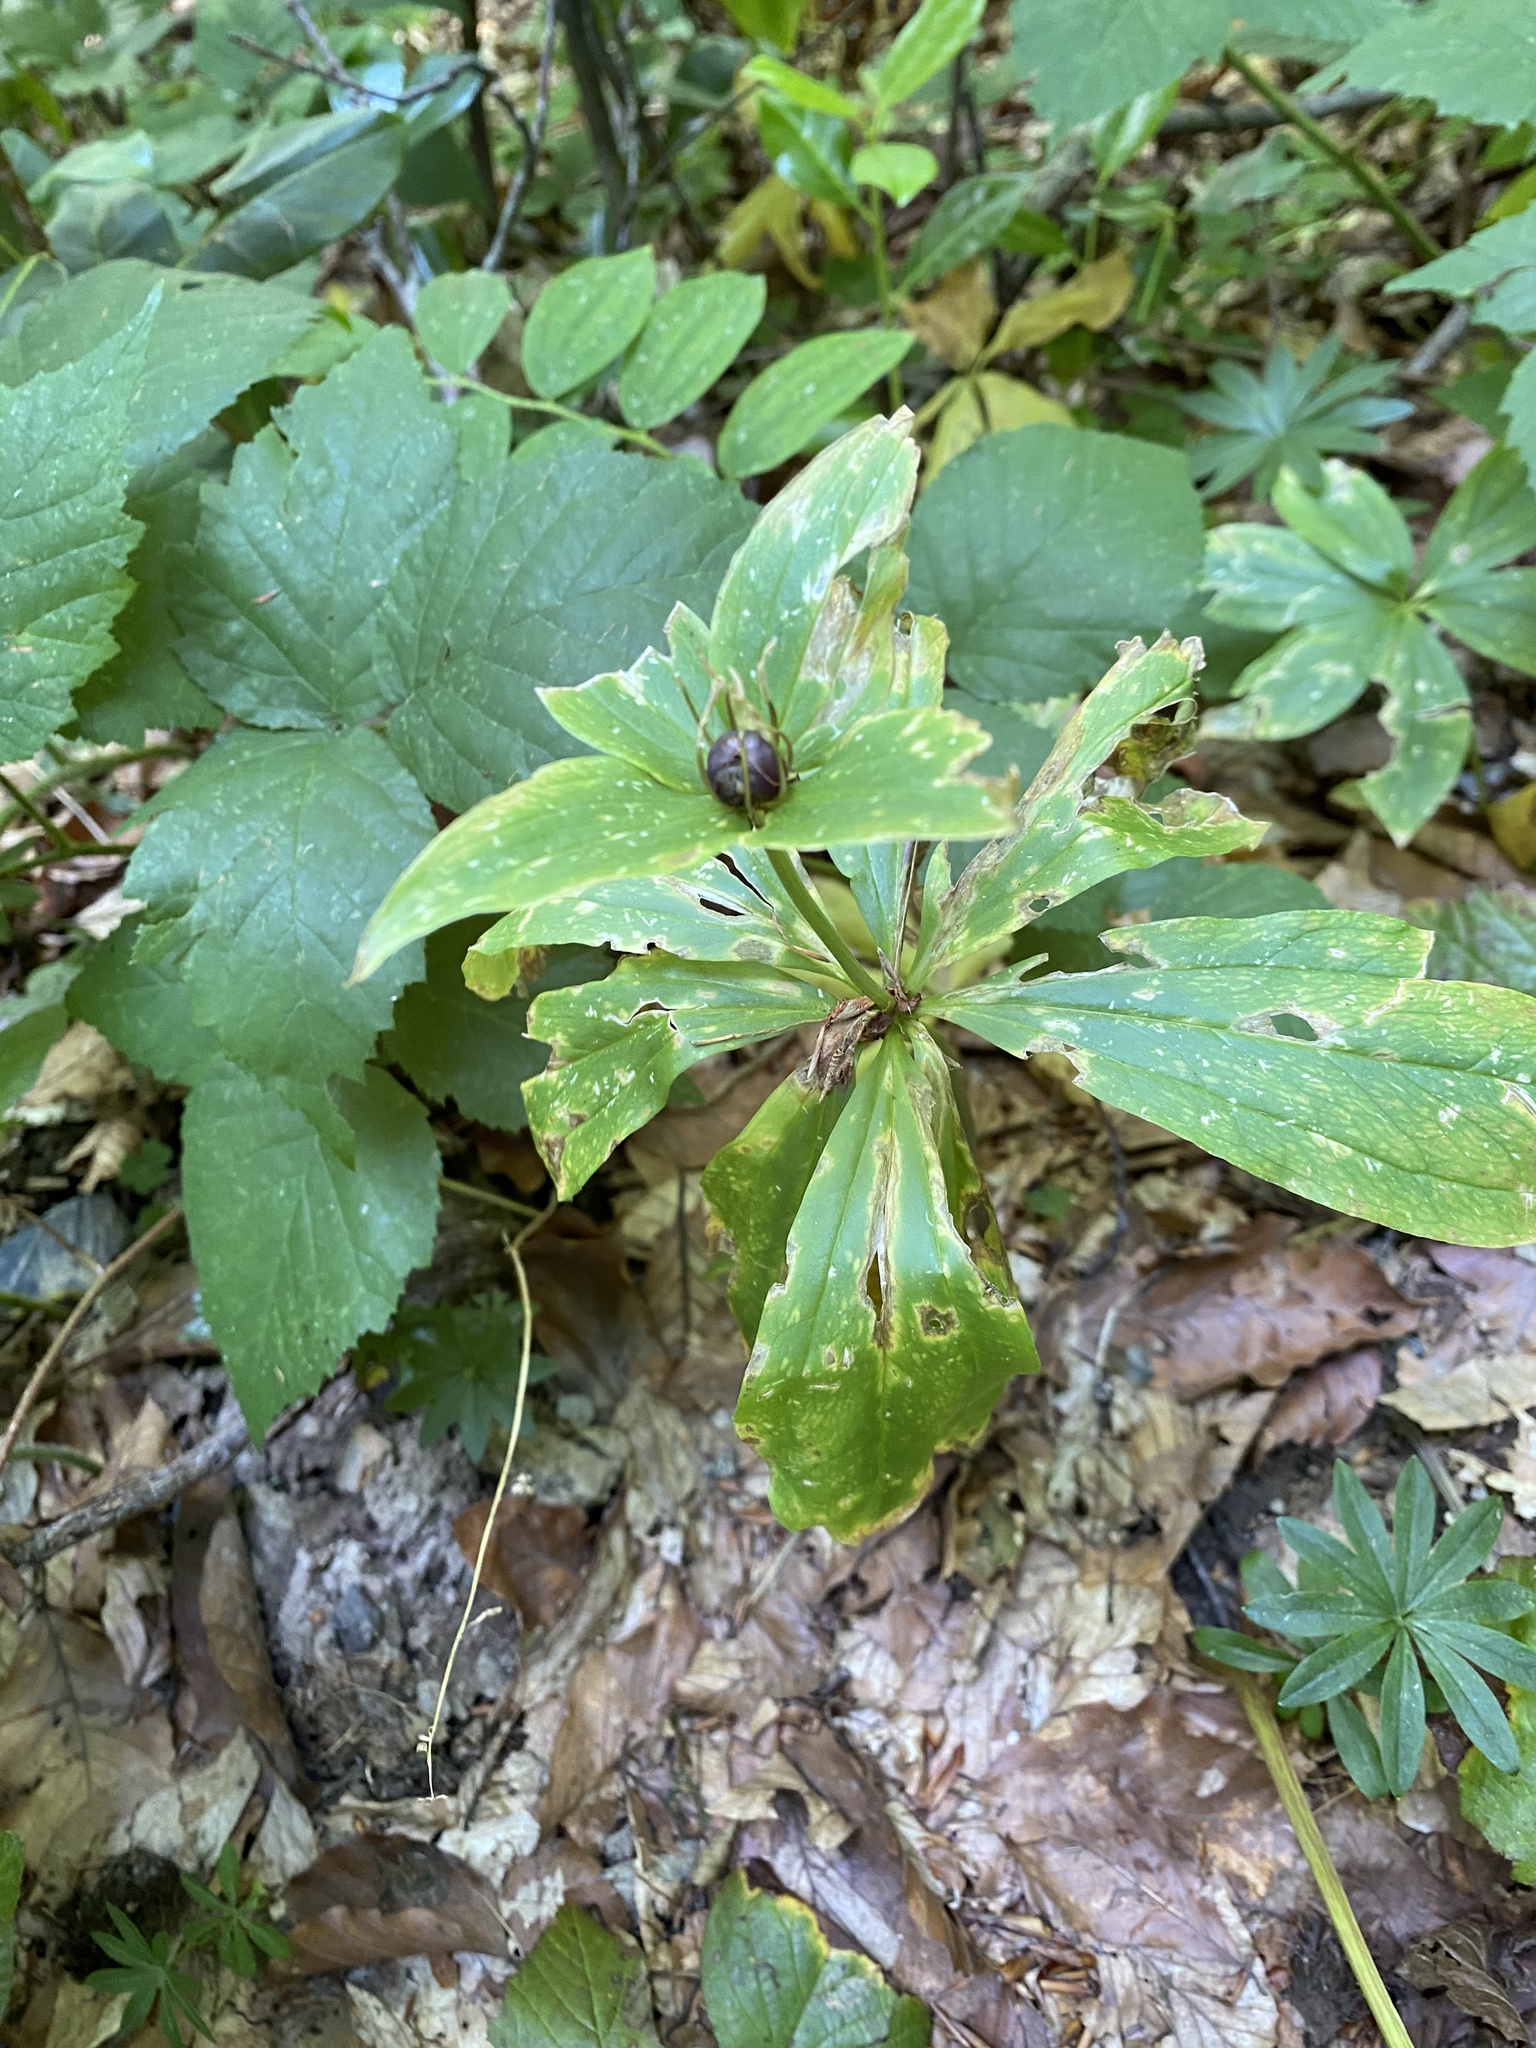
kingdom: Plantae
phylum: Tracheophyta
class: Liliopsida
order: Liliales
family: Melanthiaceae
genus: Paris
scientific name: Paris incompleta
